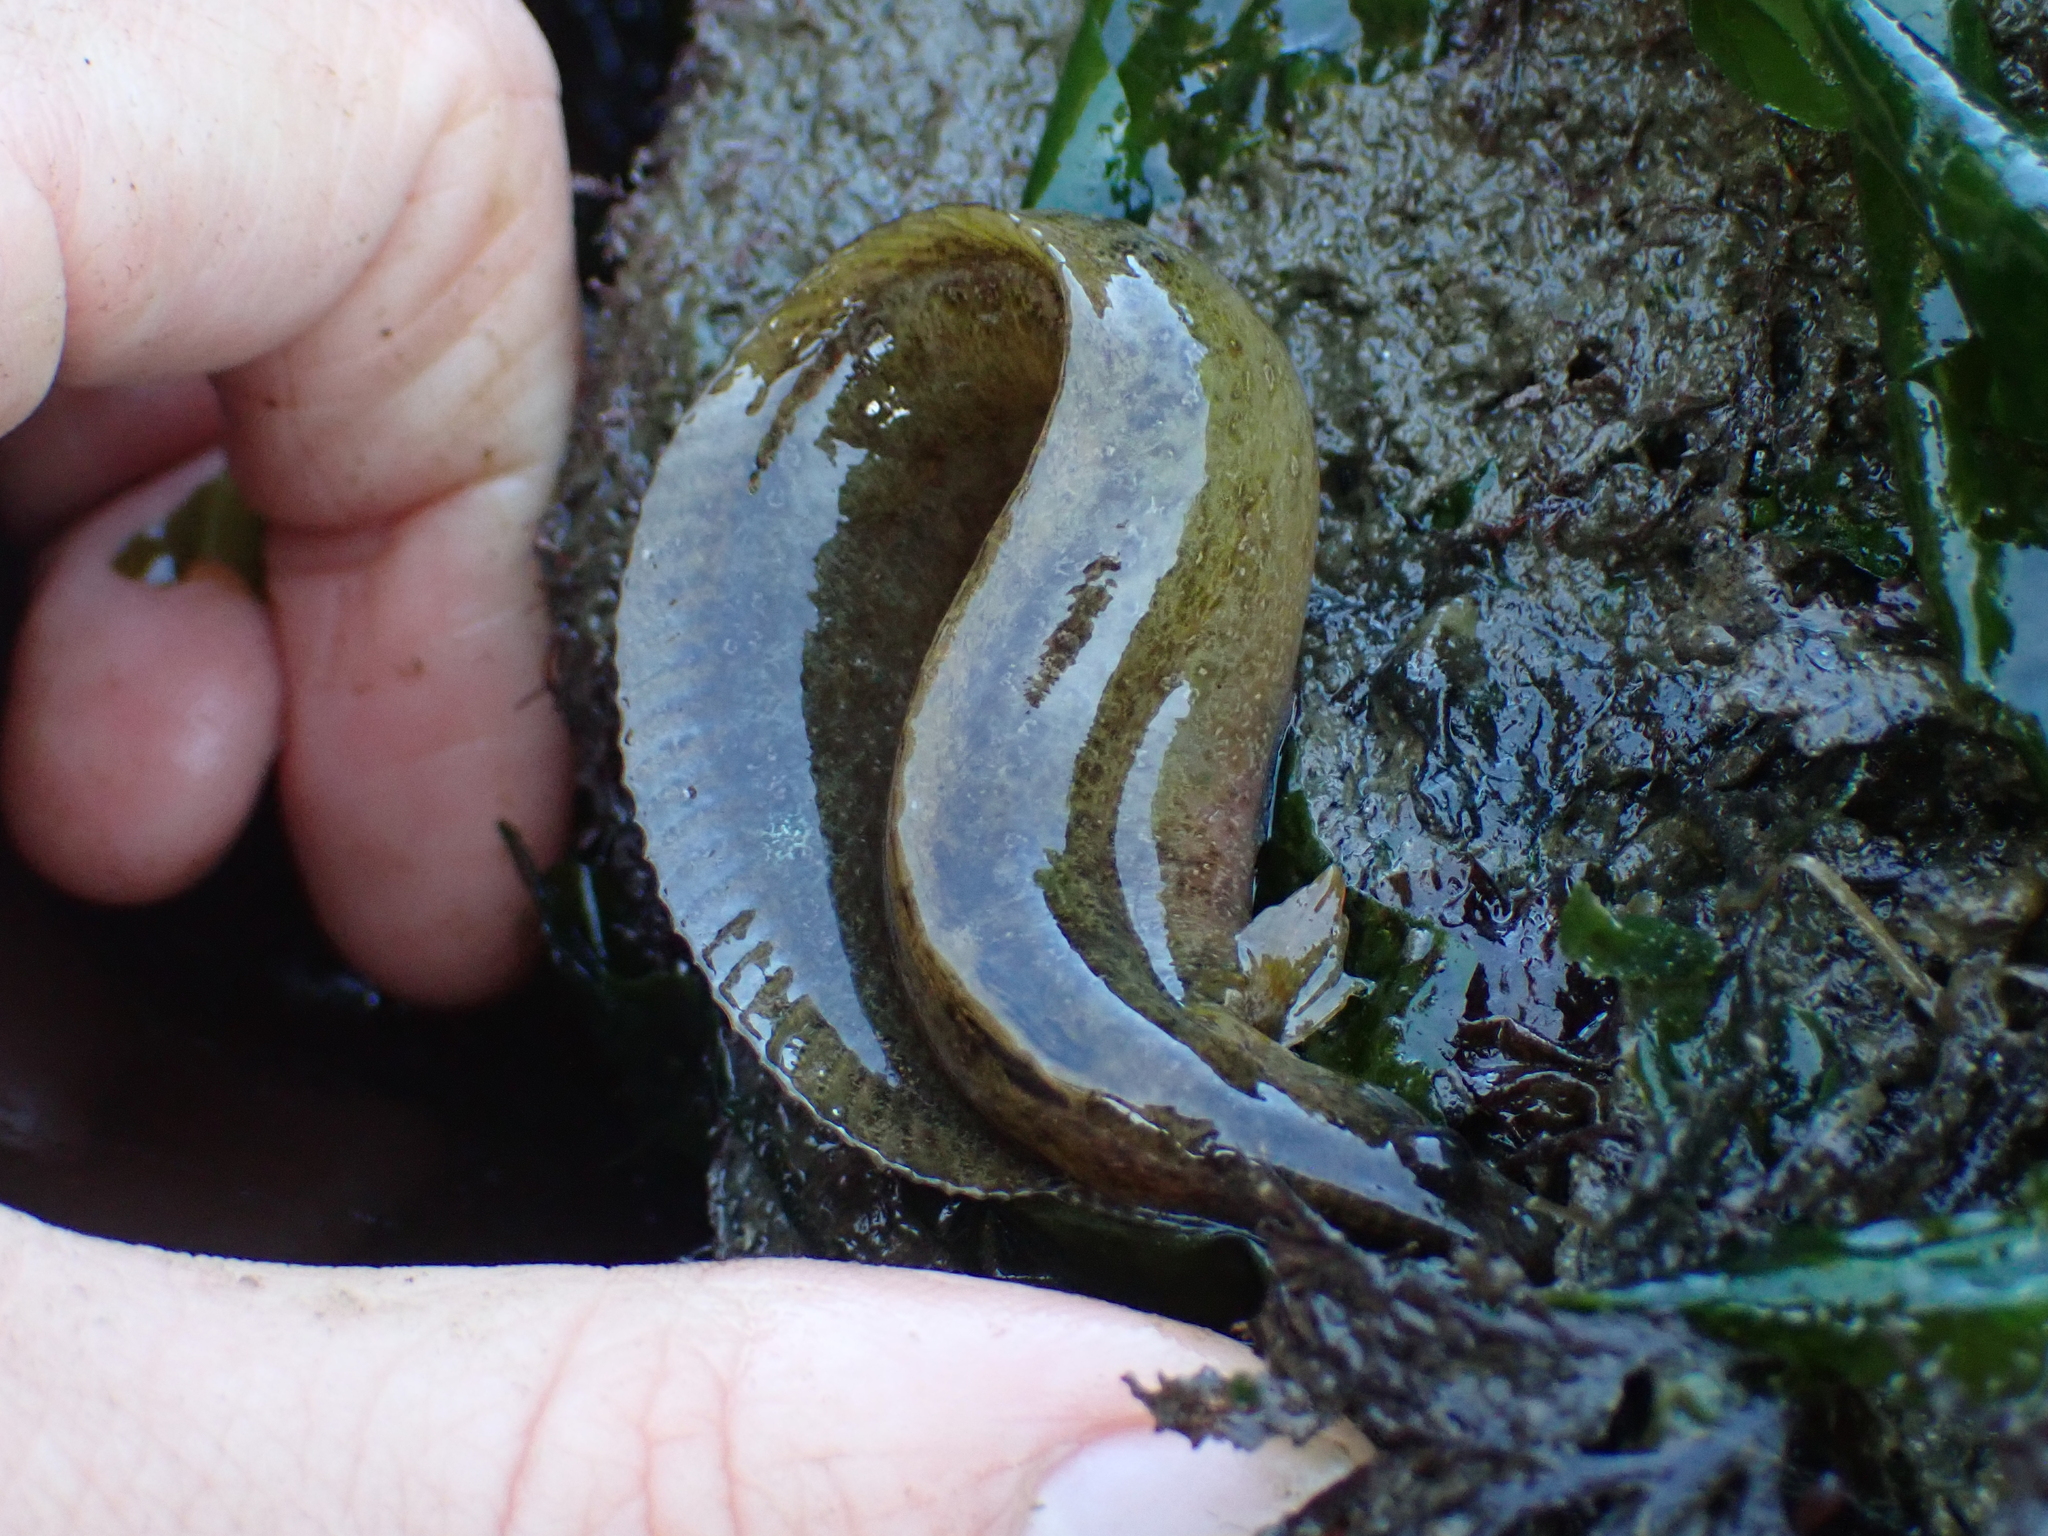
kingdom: Animalia
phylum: Chordata
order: Perciformes
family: Stichaeidae
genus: Anoplarchus
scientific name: Anoplarchus purpurescens
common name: High cockscomb
